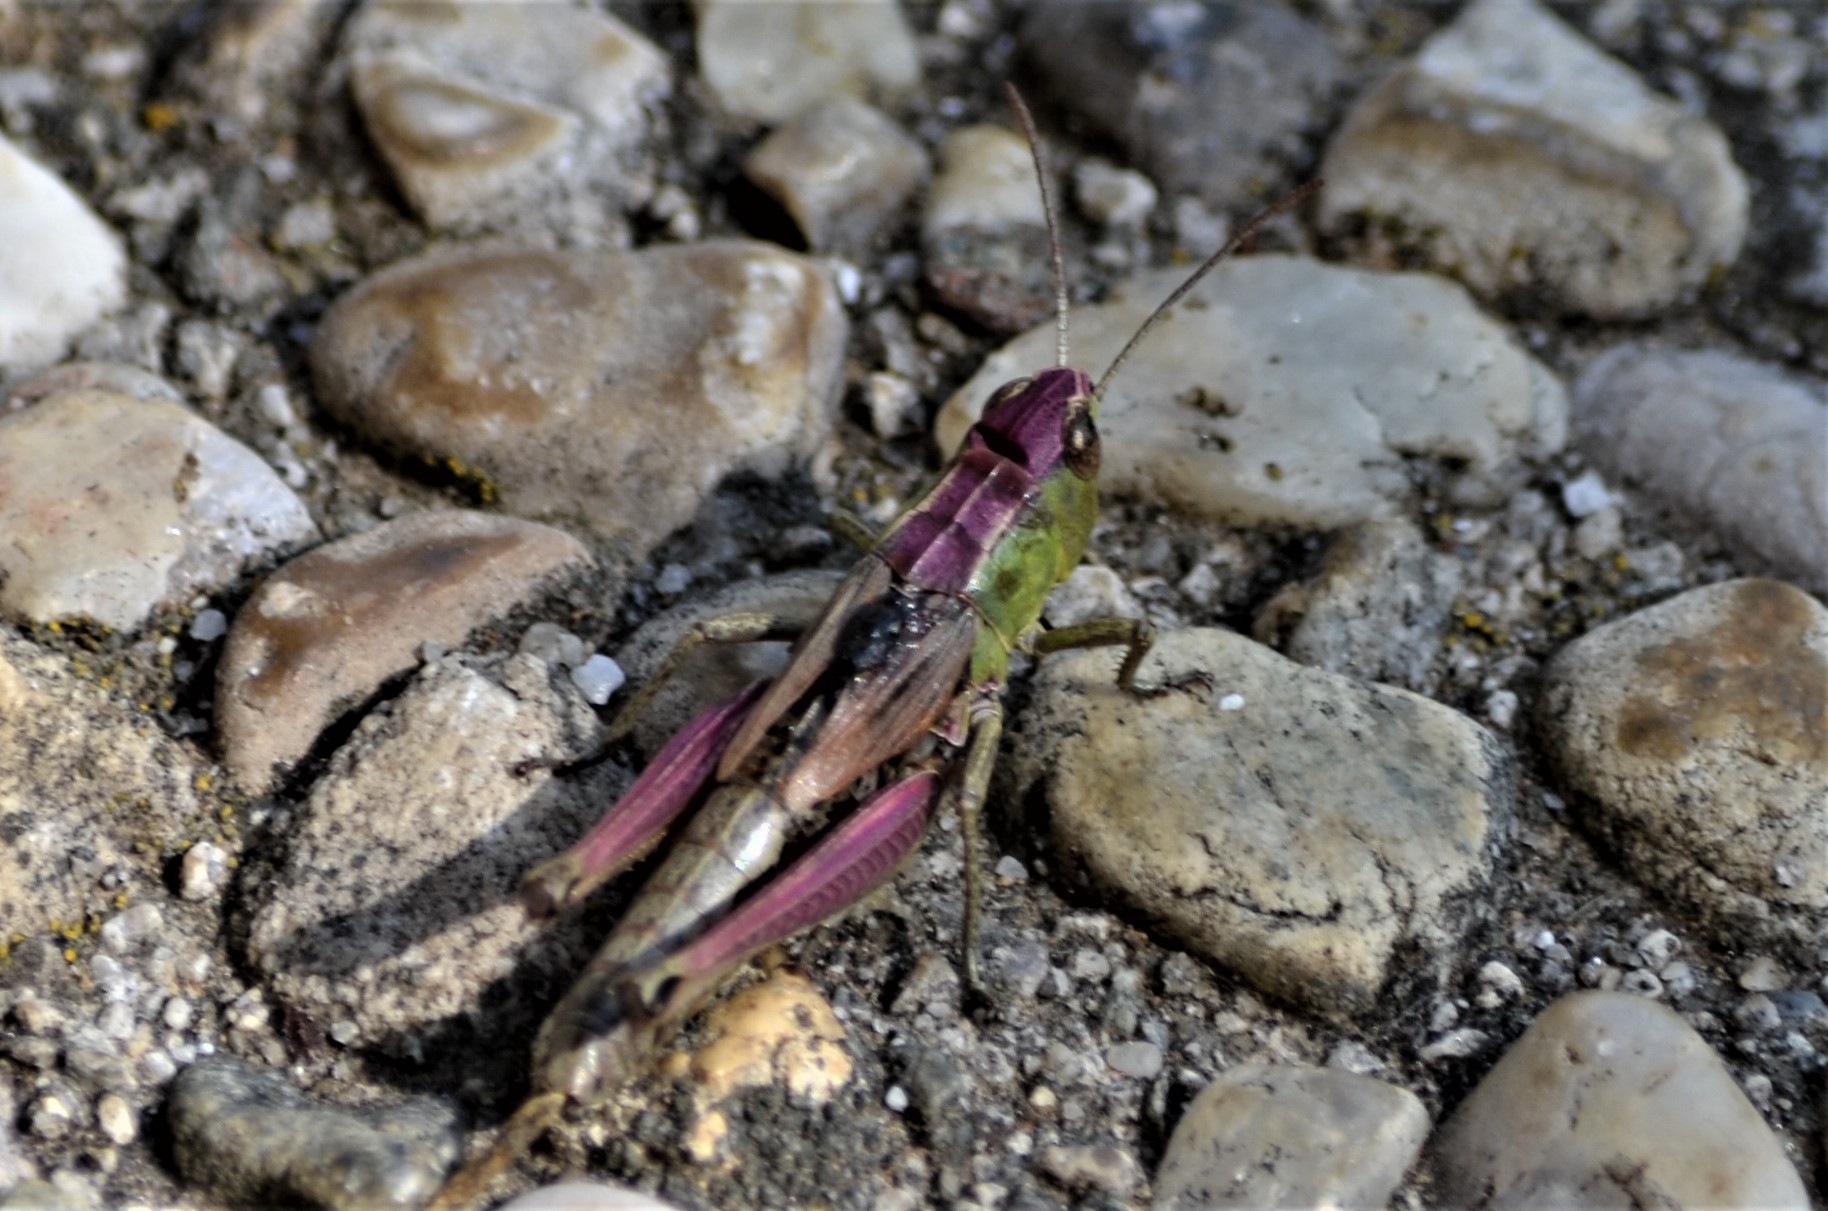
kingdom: Animalia
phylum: Arthropoda
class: Insecta
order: Orthoptera
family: Acrididae
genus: Pseudochorthippus
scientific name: Pseudochorthippus parallelus
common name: Meadow grasshopper
